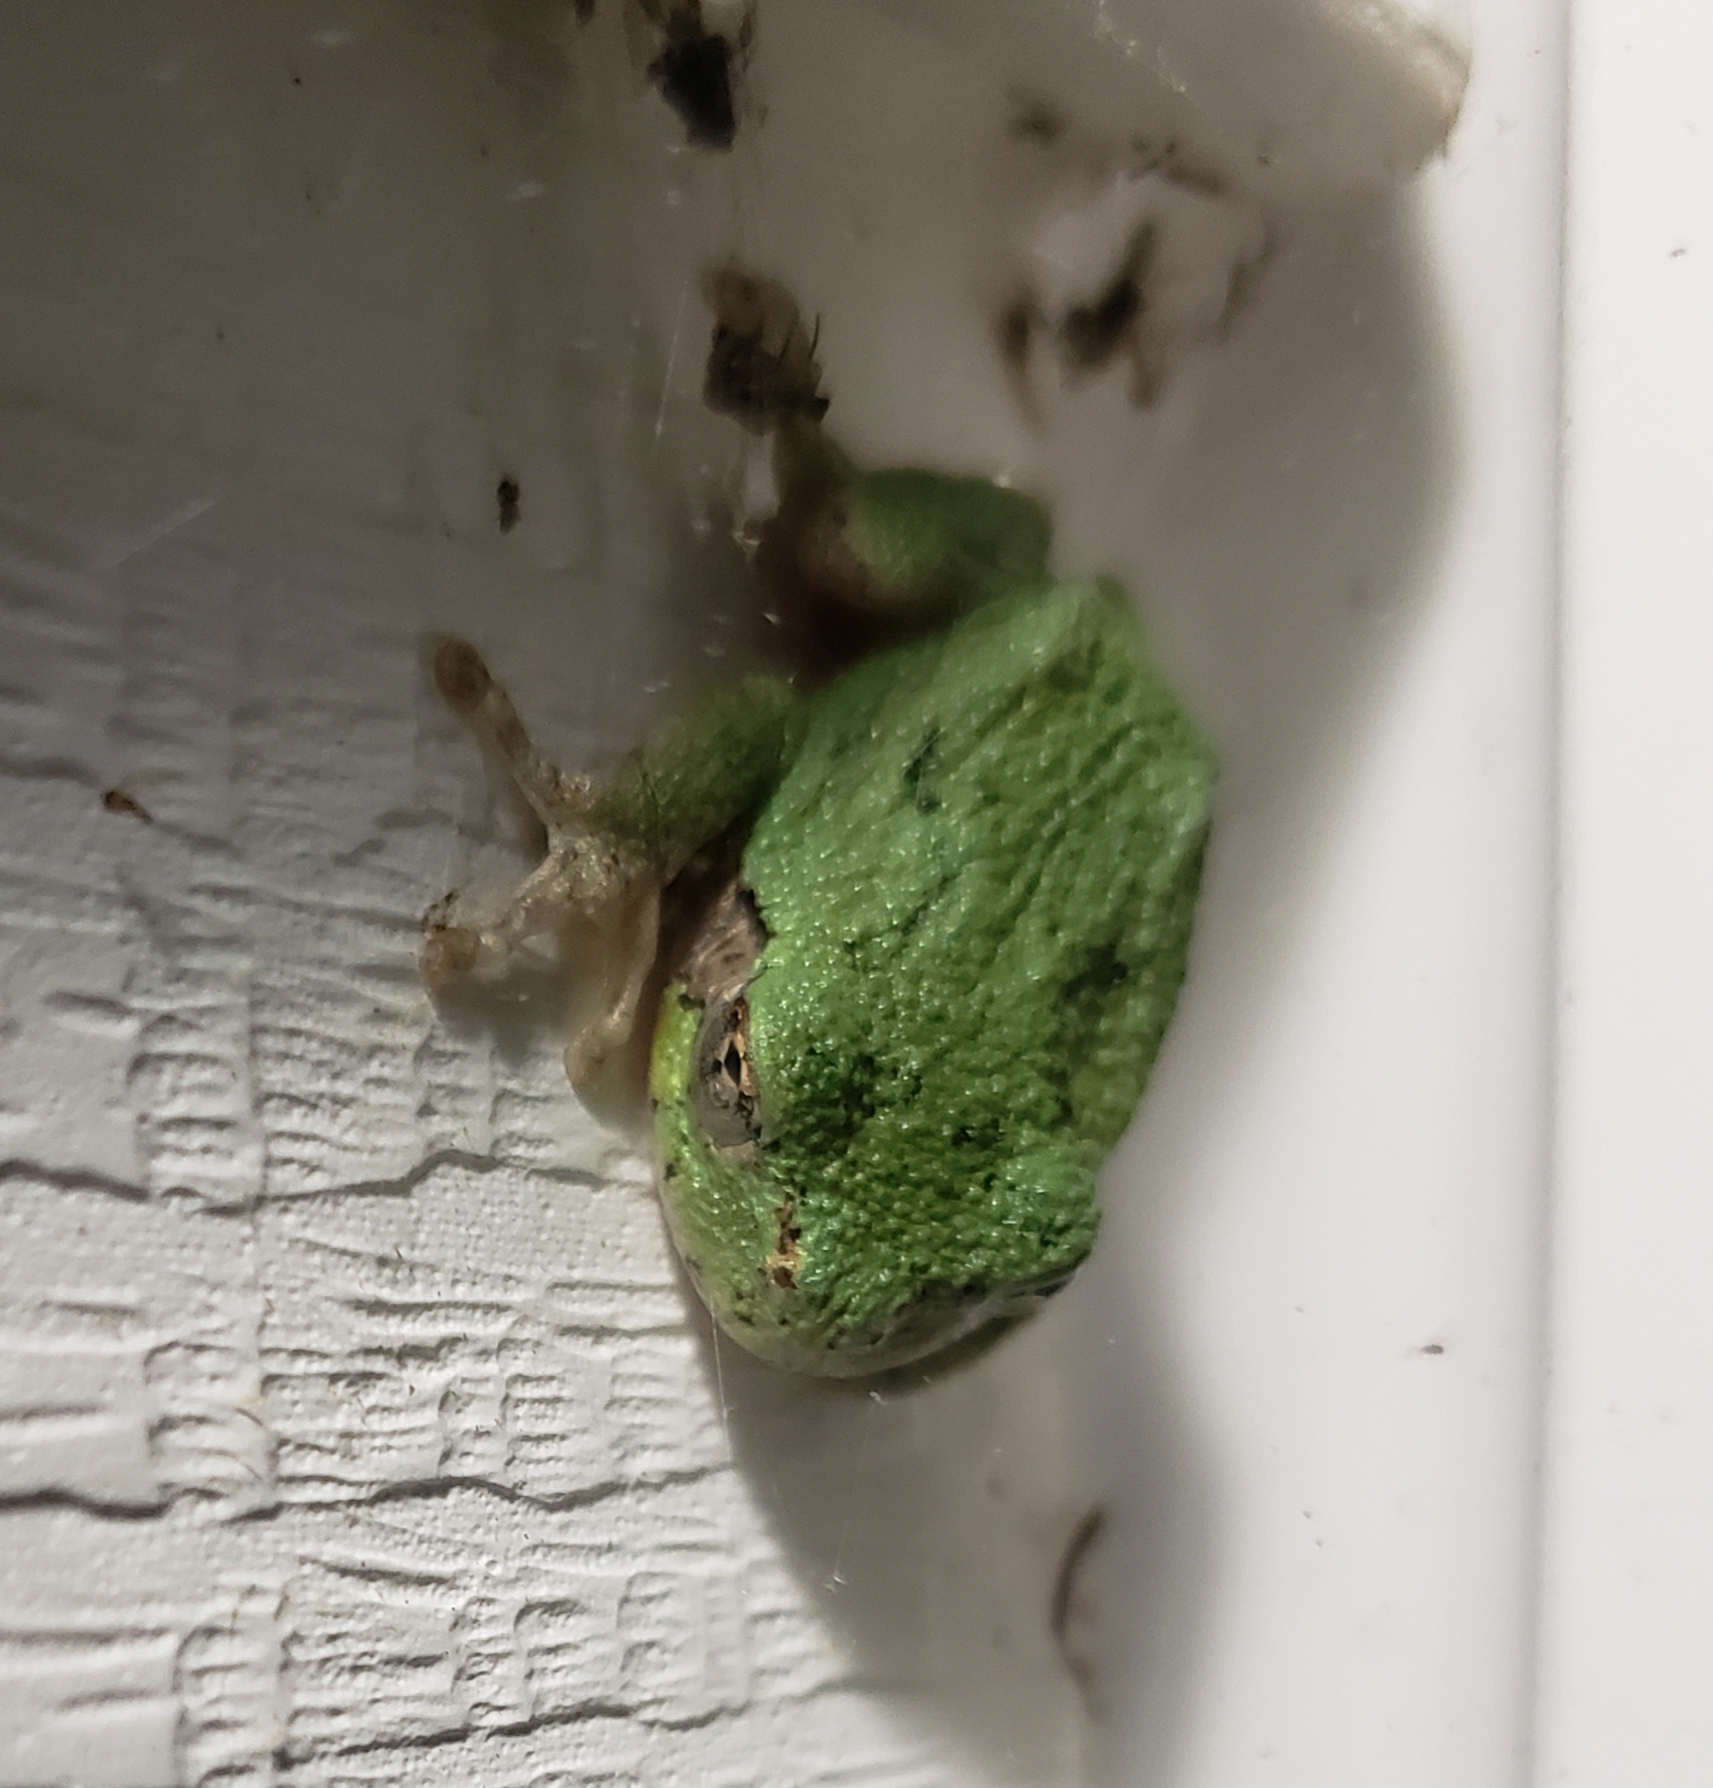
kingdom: Animalia
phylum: Chordata
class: Amphibia
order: Anura
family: Hylidae
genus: Dryophytes
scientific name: Dryophytes versicolor
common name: Gray treefrog
